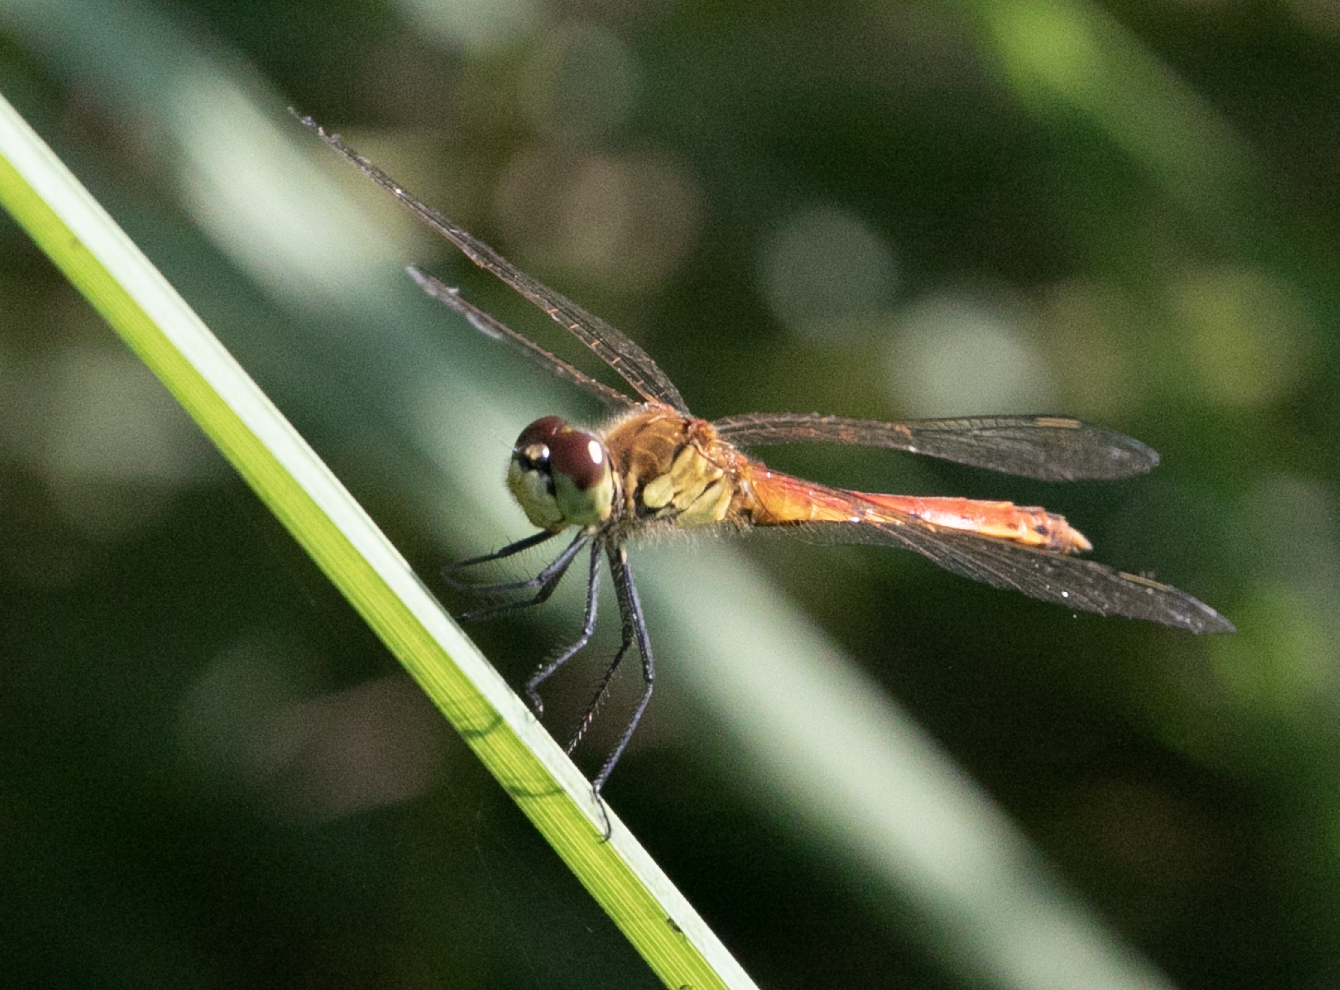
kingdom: Animalia
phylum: Arthropoda
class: Insecta
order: Odonata
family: Libellulidae
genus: Sympetrum
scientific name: Sympetrum depressiusculum
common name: Spotted darter
